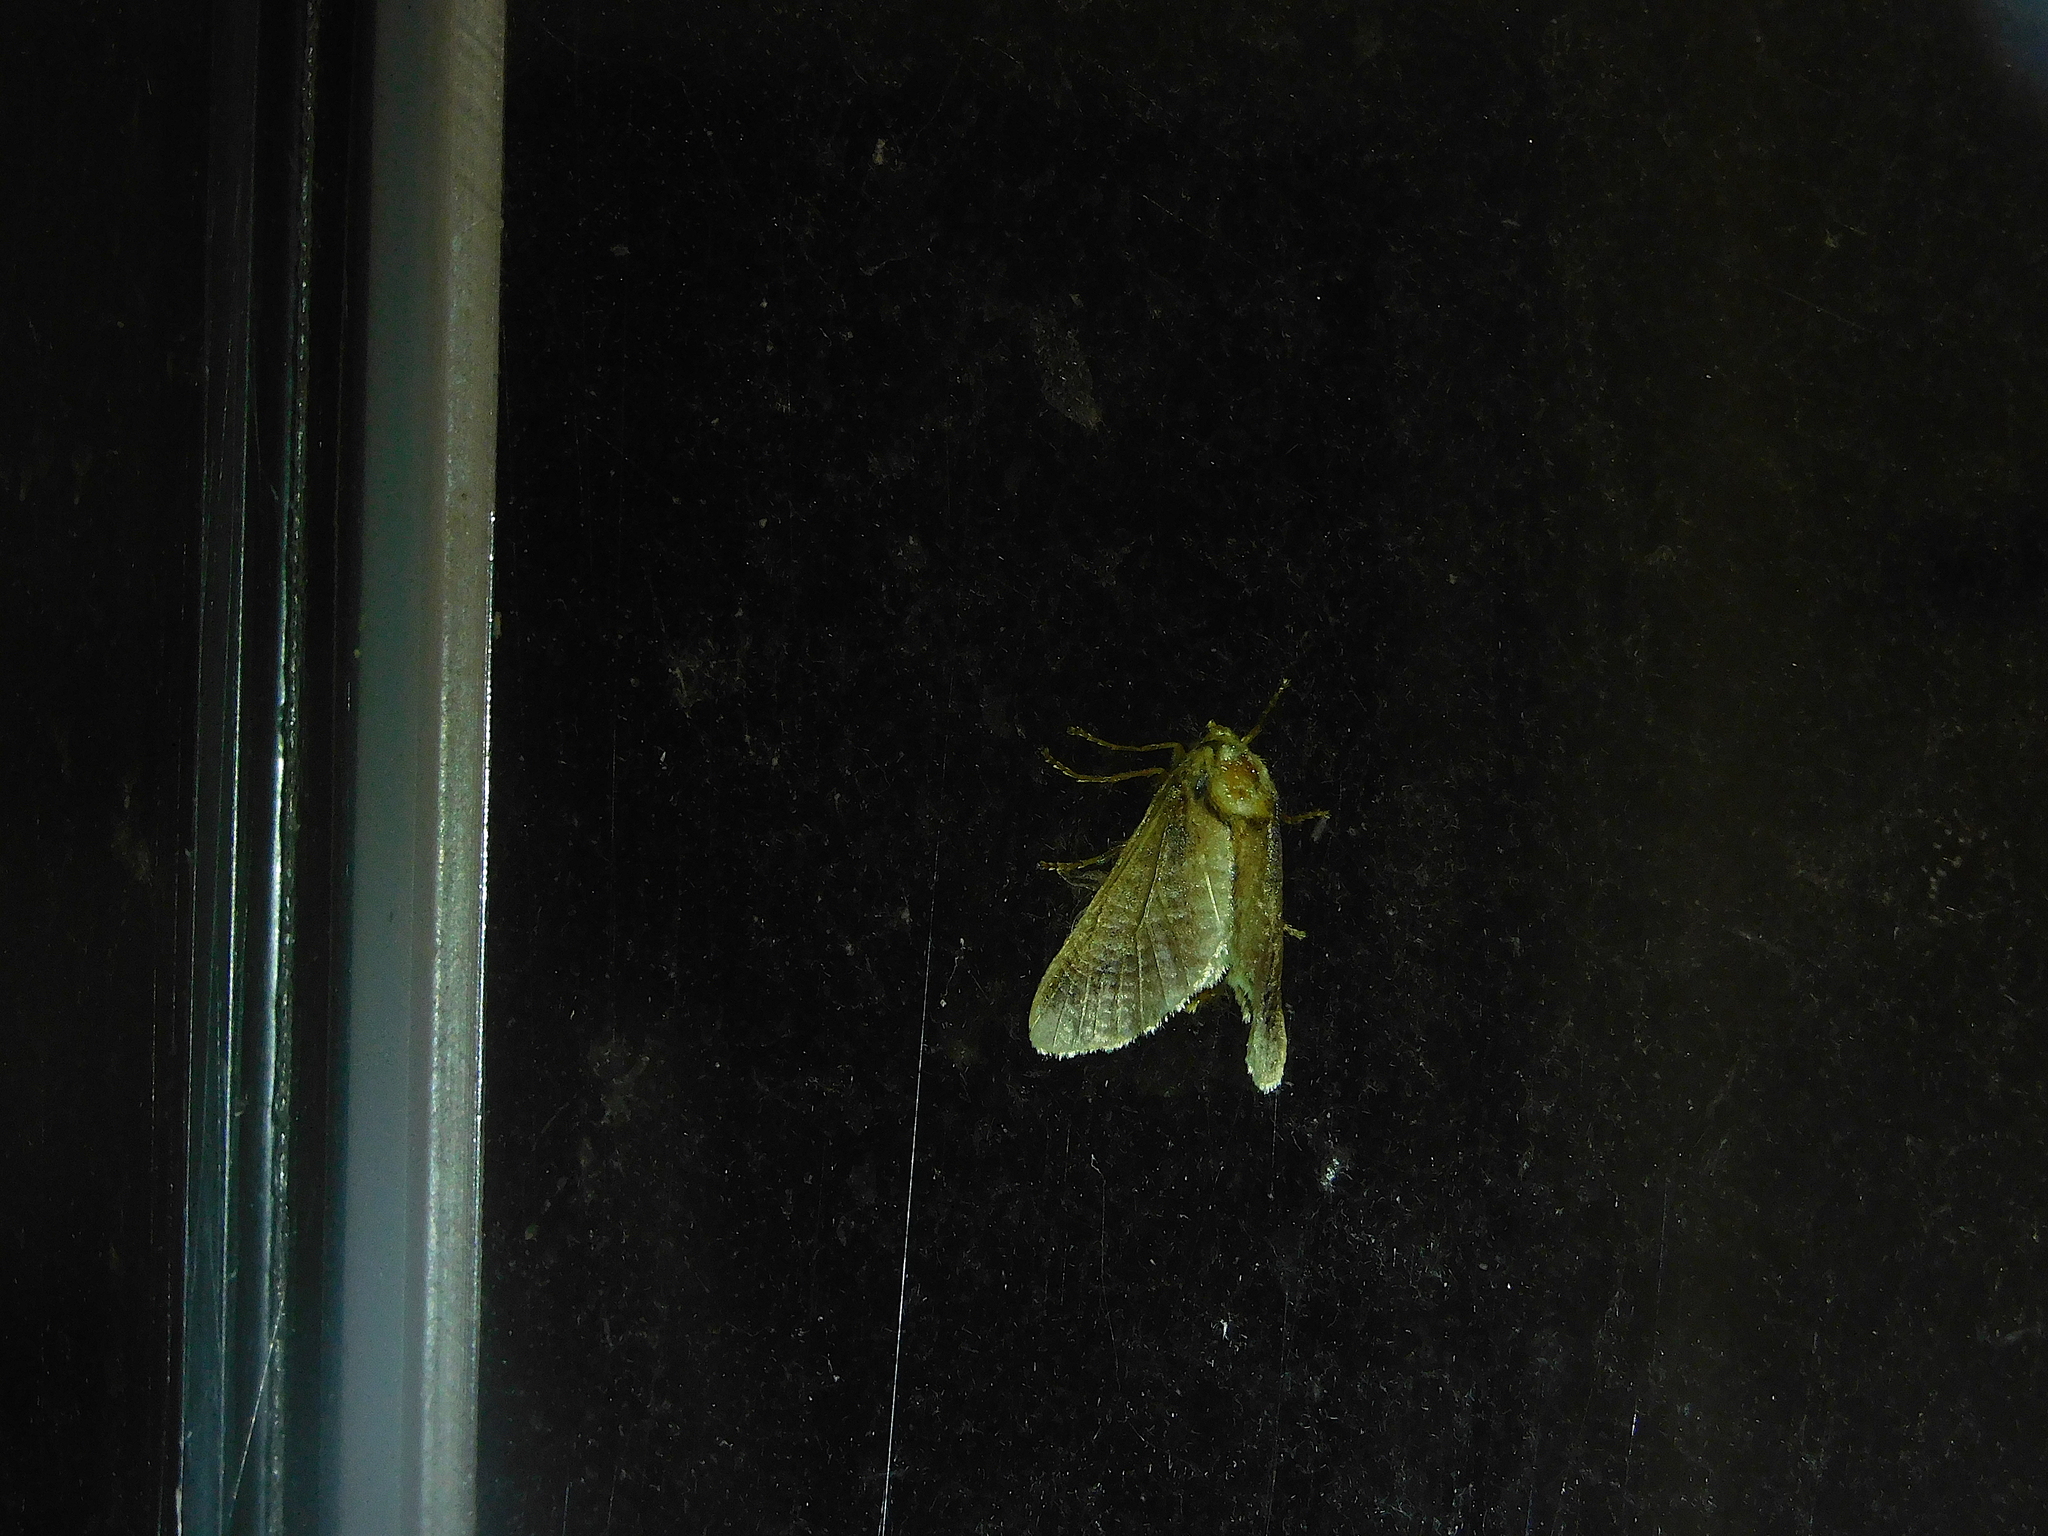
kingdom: Animalia
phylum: Arthropoda
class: Insecta
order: Lepidoptera
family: Limacodidae
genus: Doratifera
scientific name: Doratifera oxleyi
